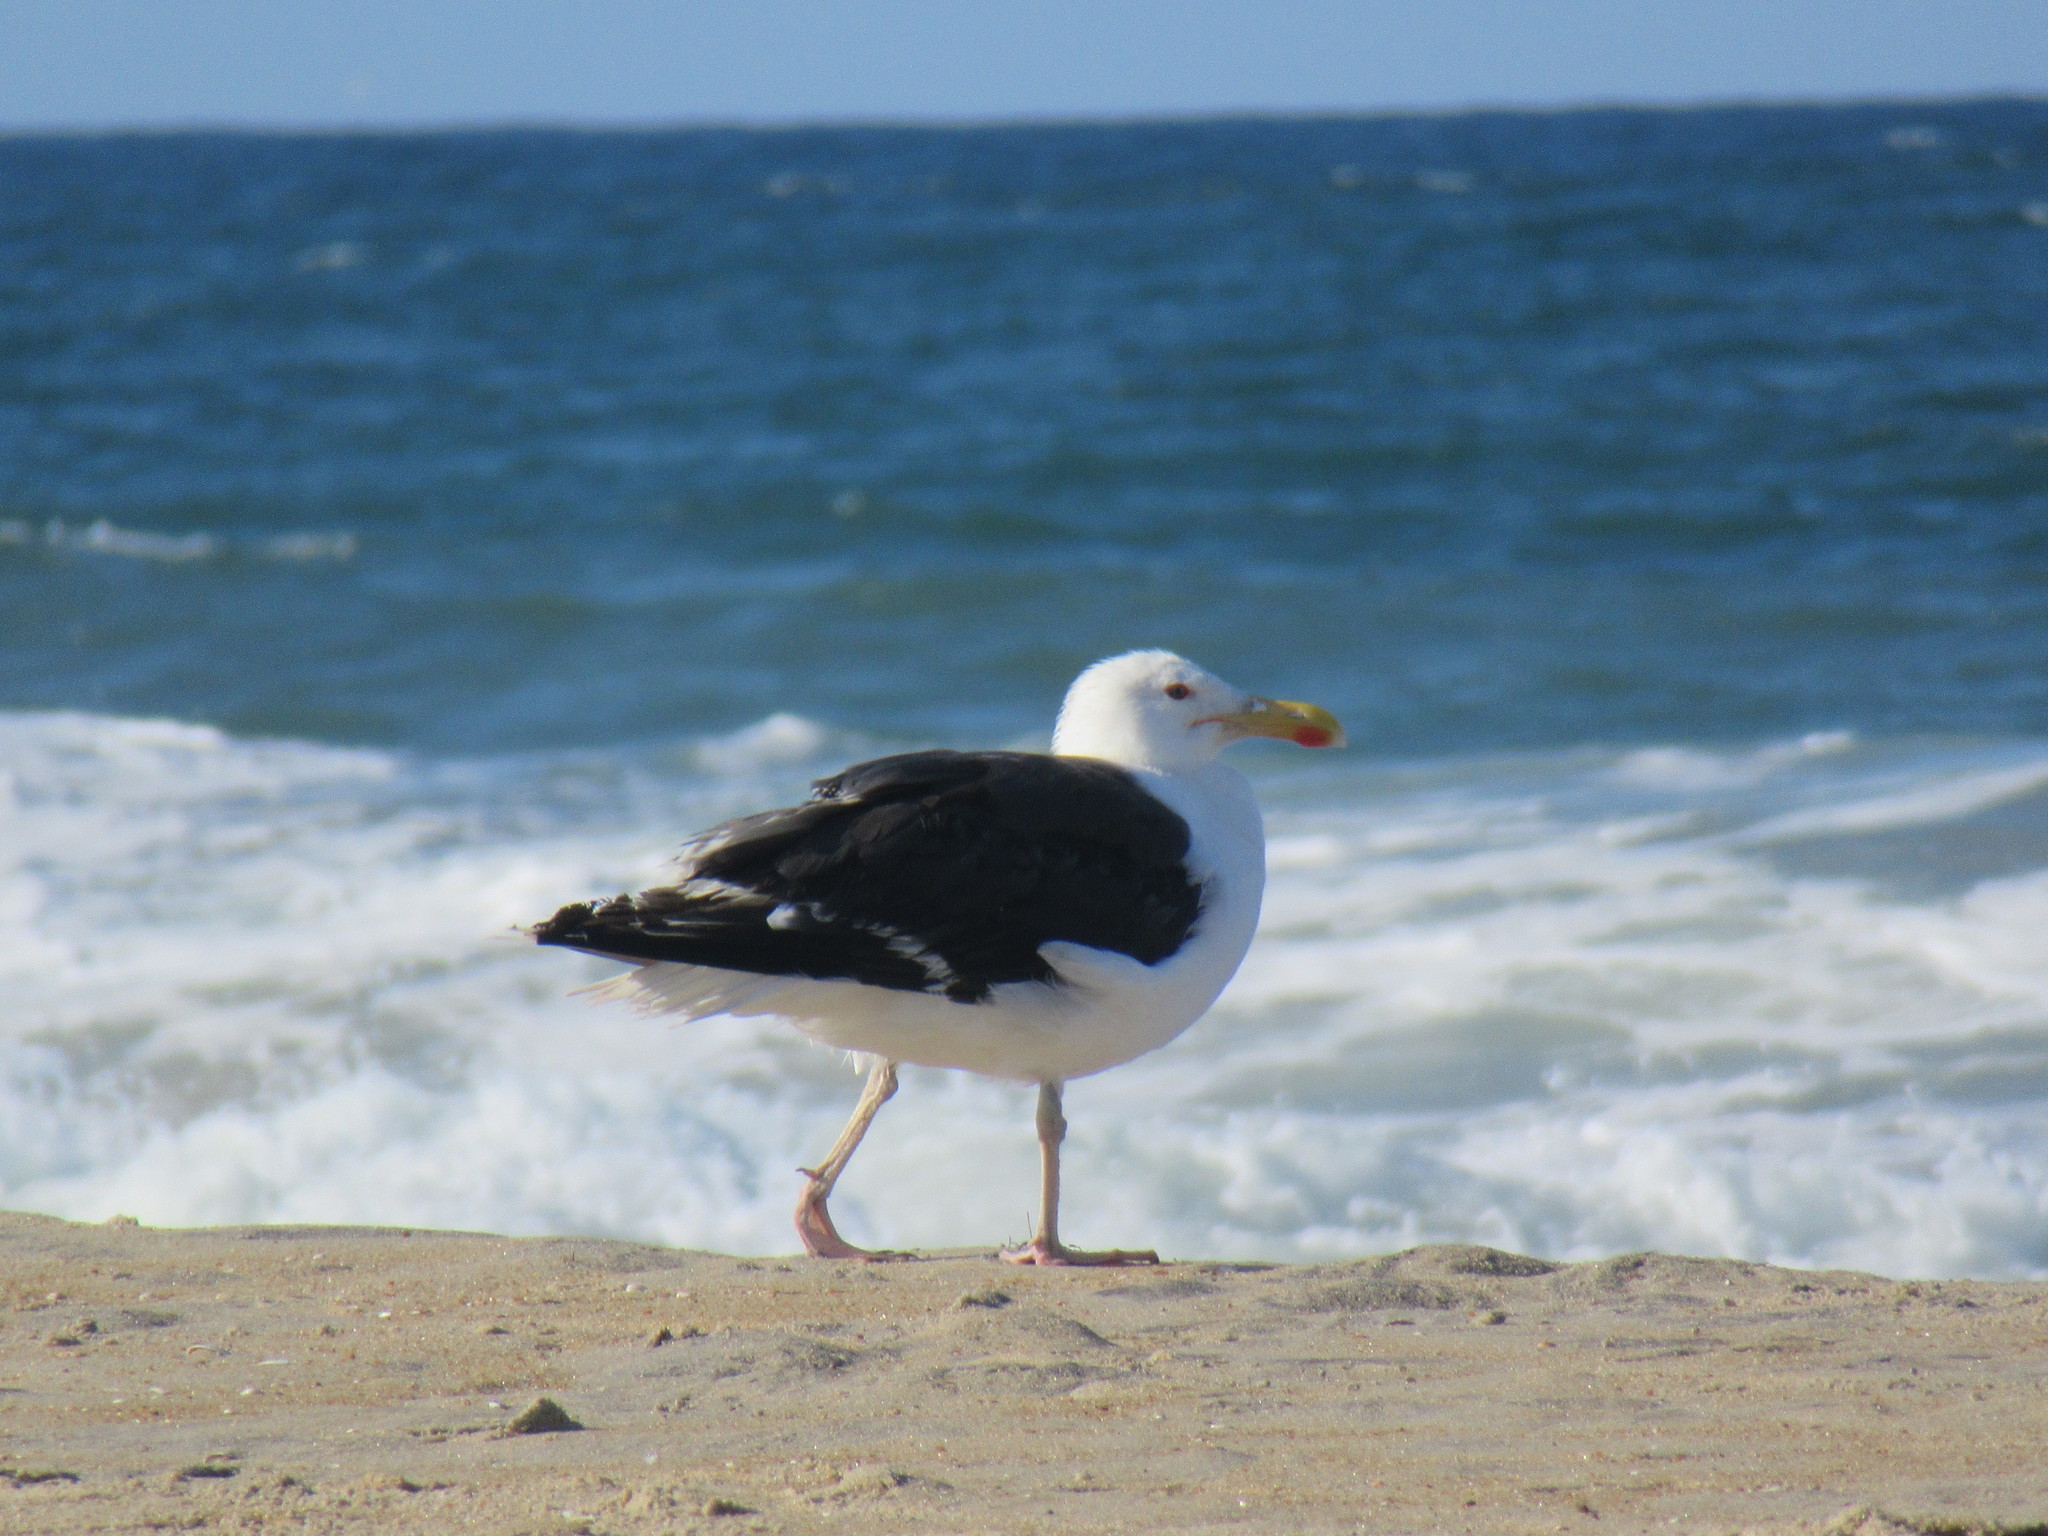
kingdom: Animalia
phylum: Chordata
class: Aves
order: Charadriiformes
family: Laridae
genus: Larus
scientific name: Larus marinus
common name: Great black-backed gull
